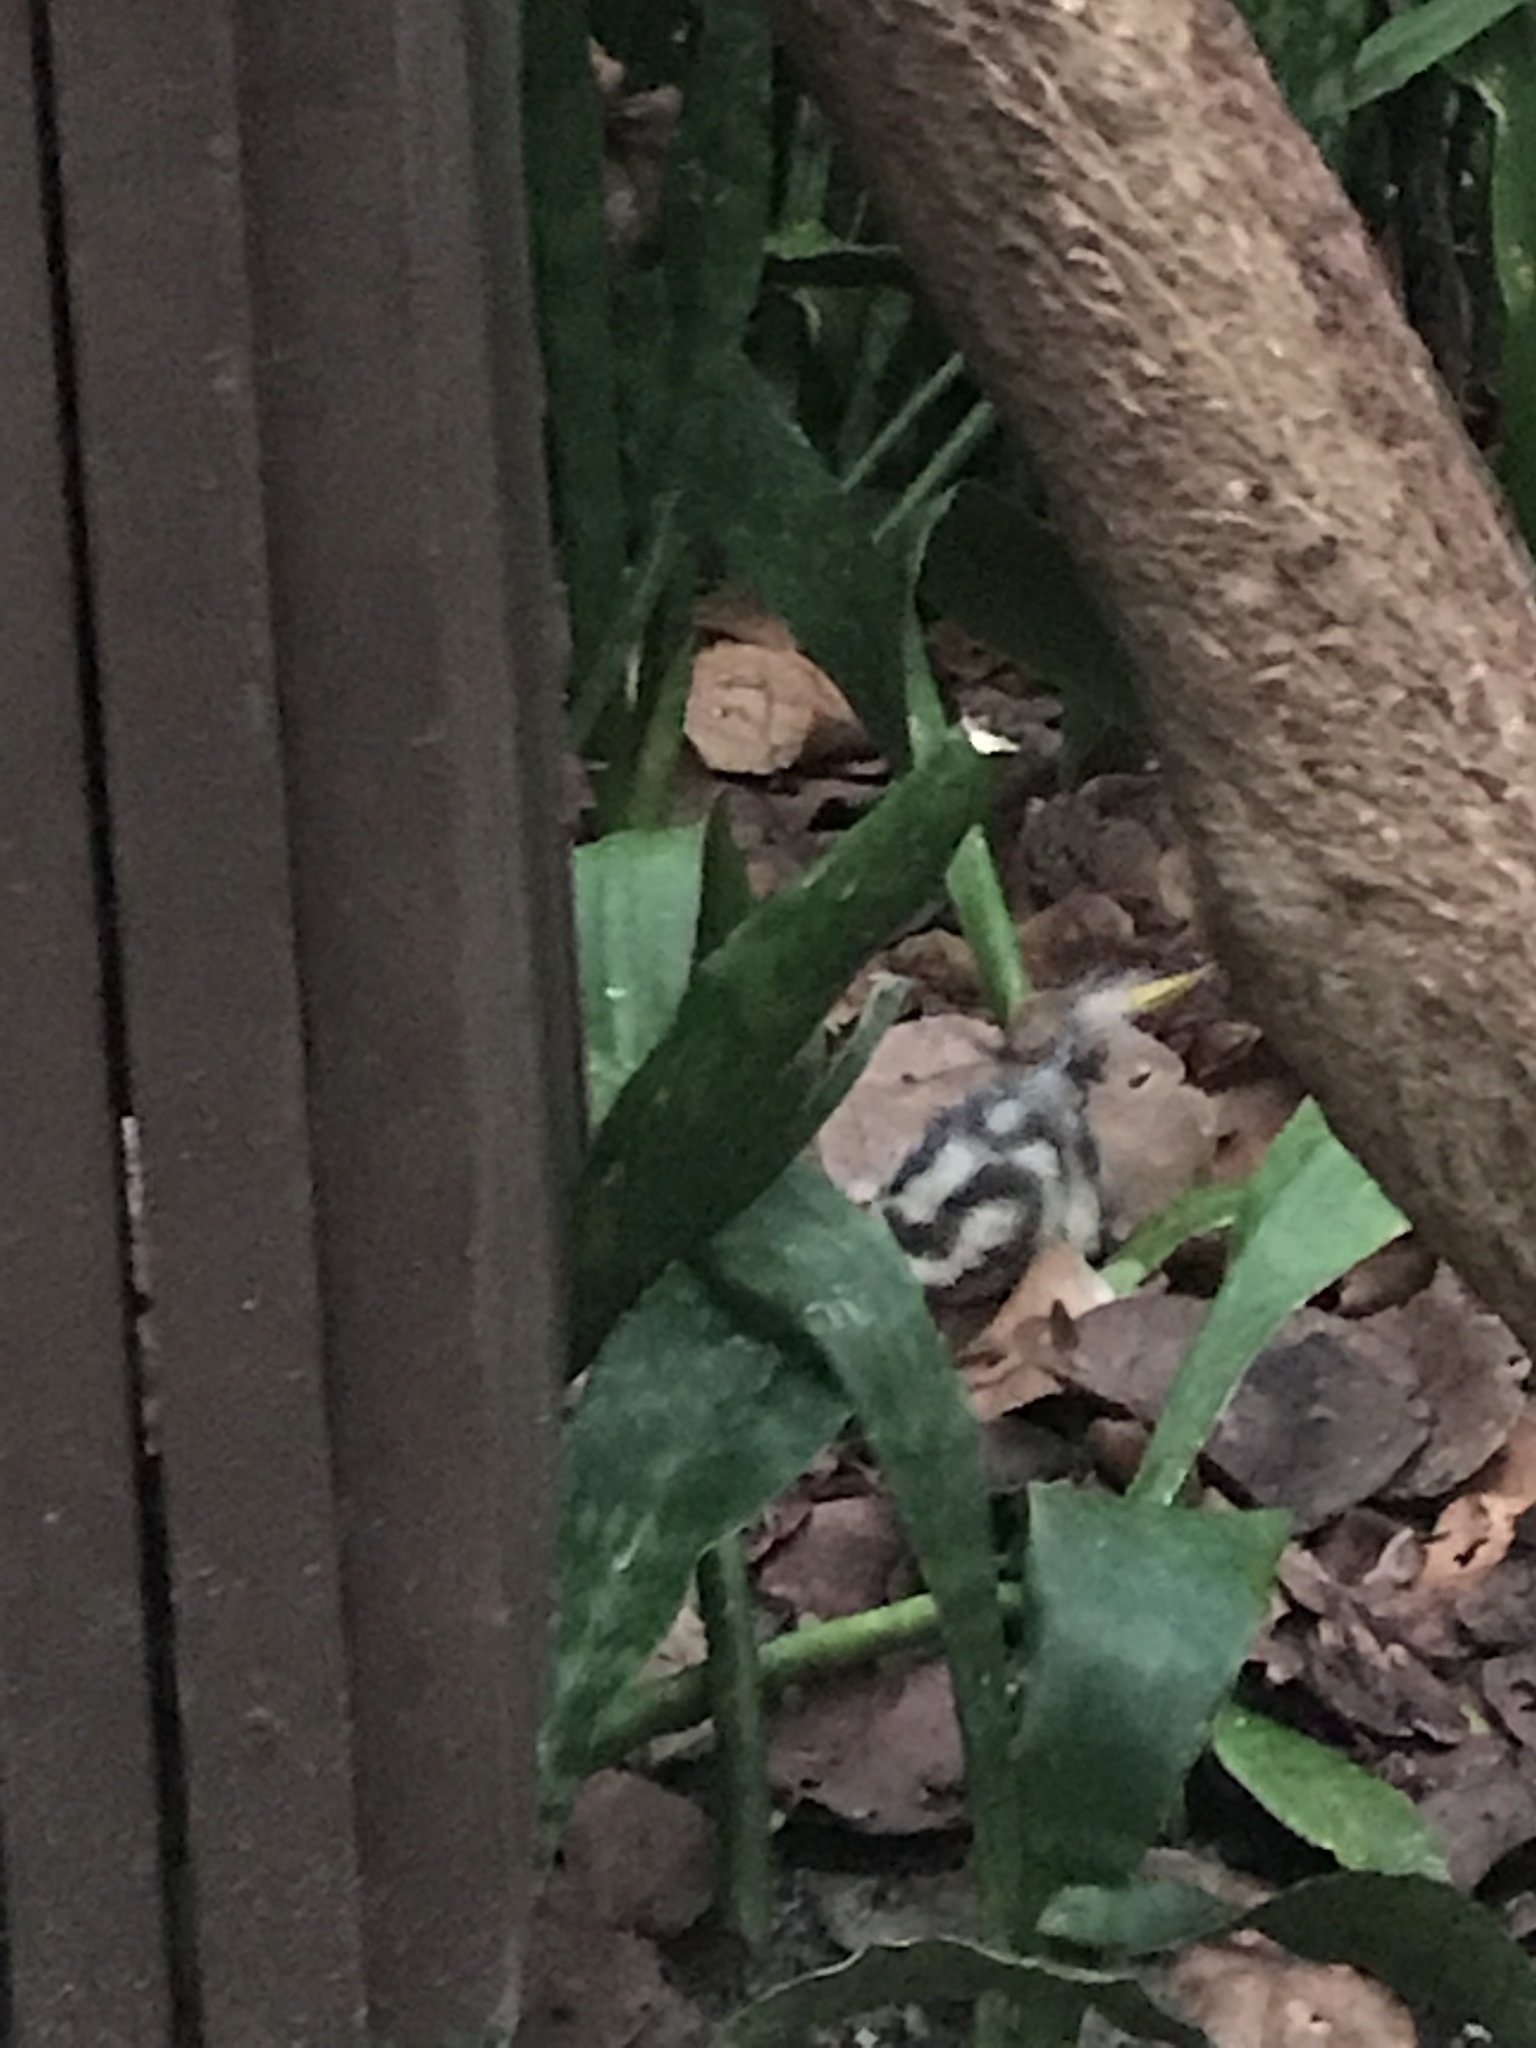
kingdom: Animalia
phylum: Chordata
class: Mammalia
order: Carnivora
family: Mephitidae
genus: Spilogale
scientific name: Spilogale putorius
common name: Eastern spotted skunk
